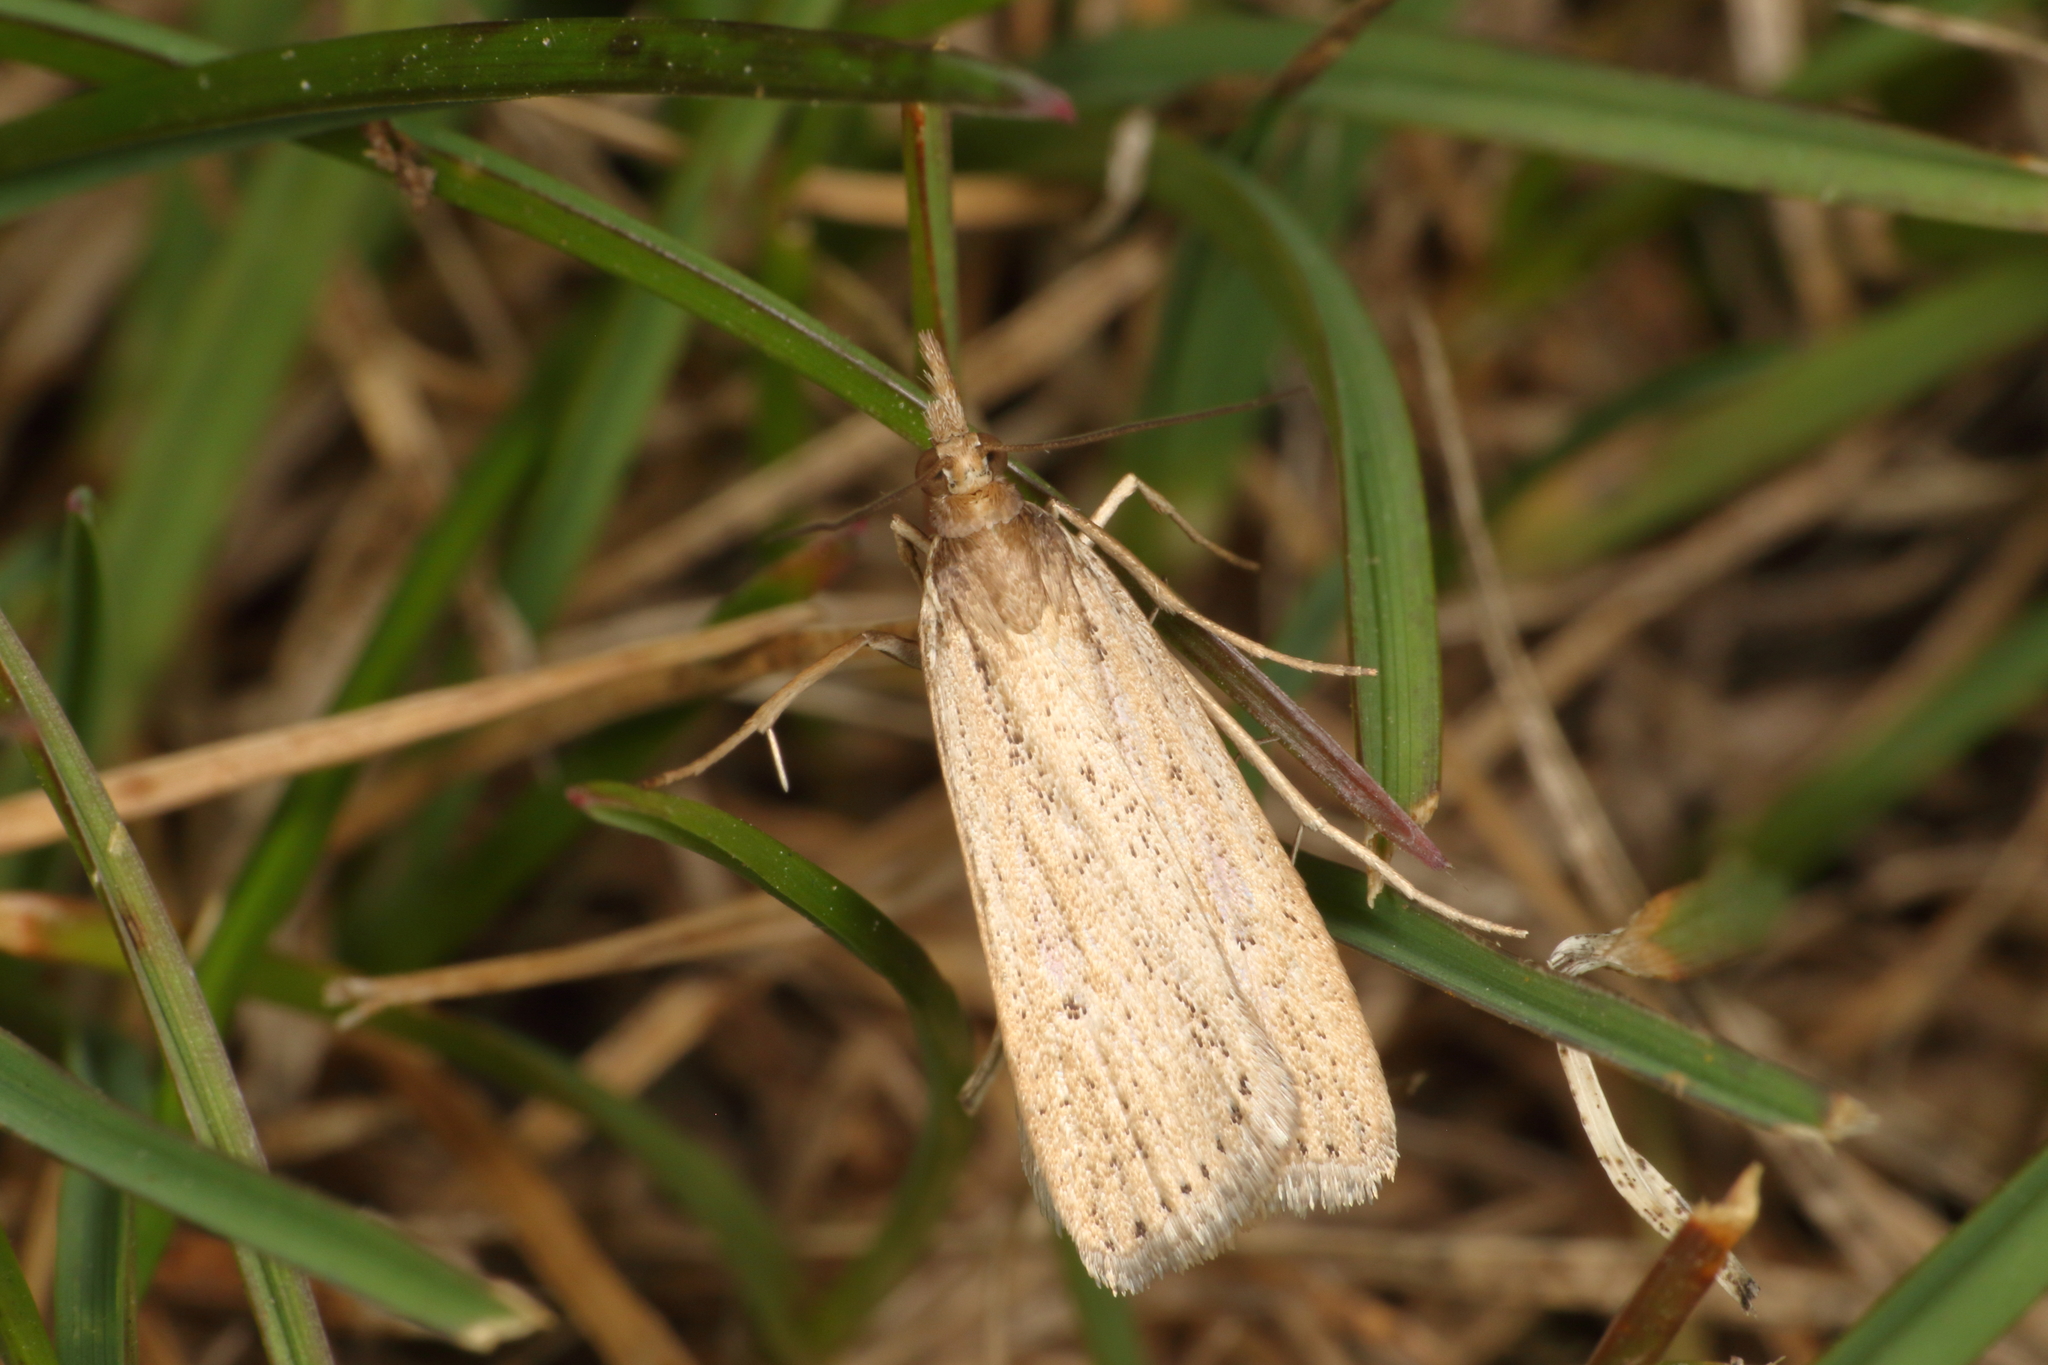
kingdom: Animalia
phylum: Arthropoda
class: Insecta
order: Lepidoptera
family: Crambidae
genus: Eudonia
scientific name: Eudonia sabulosella
